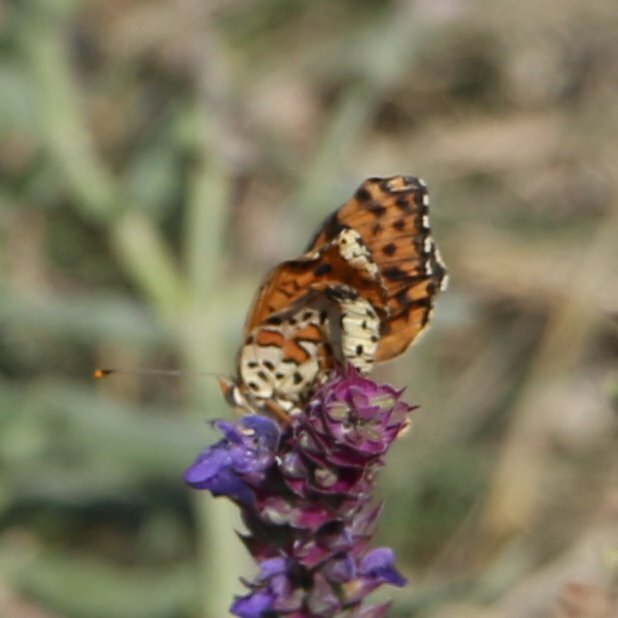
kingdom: Animalia
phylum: Arthropoda
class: Insecta
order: Lepidoptera
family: Nymphalidae
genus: Melitaea
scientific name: Melitaea didyma
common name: Spotted fritillary
